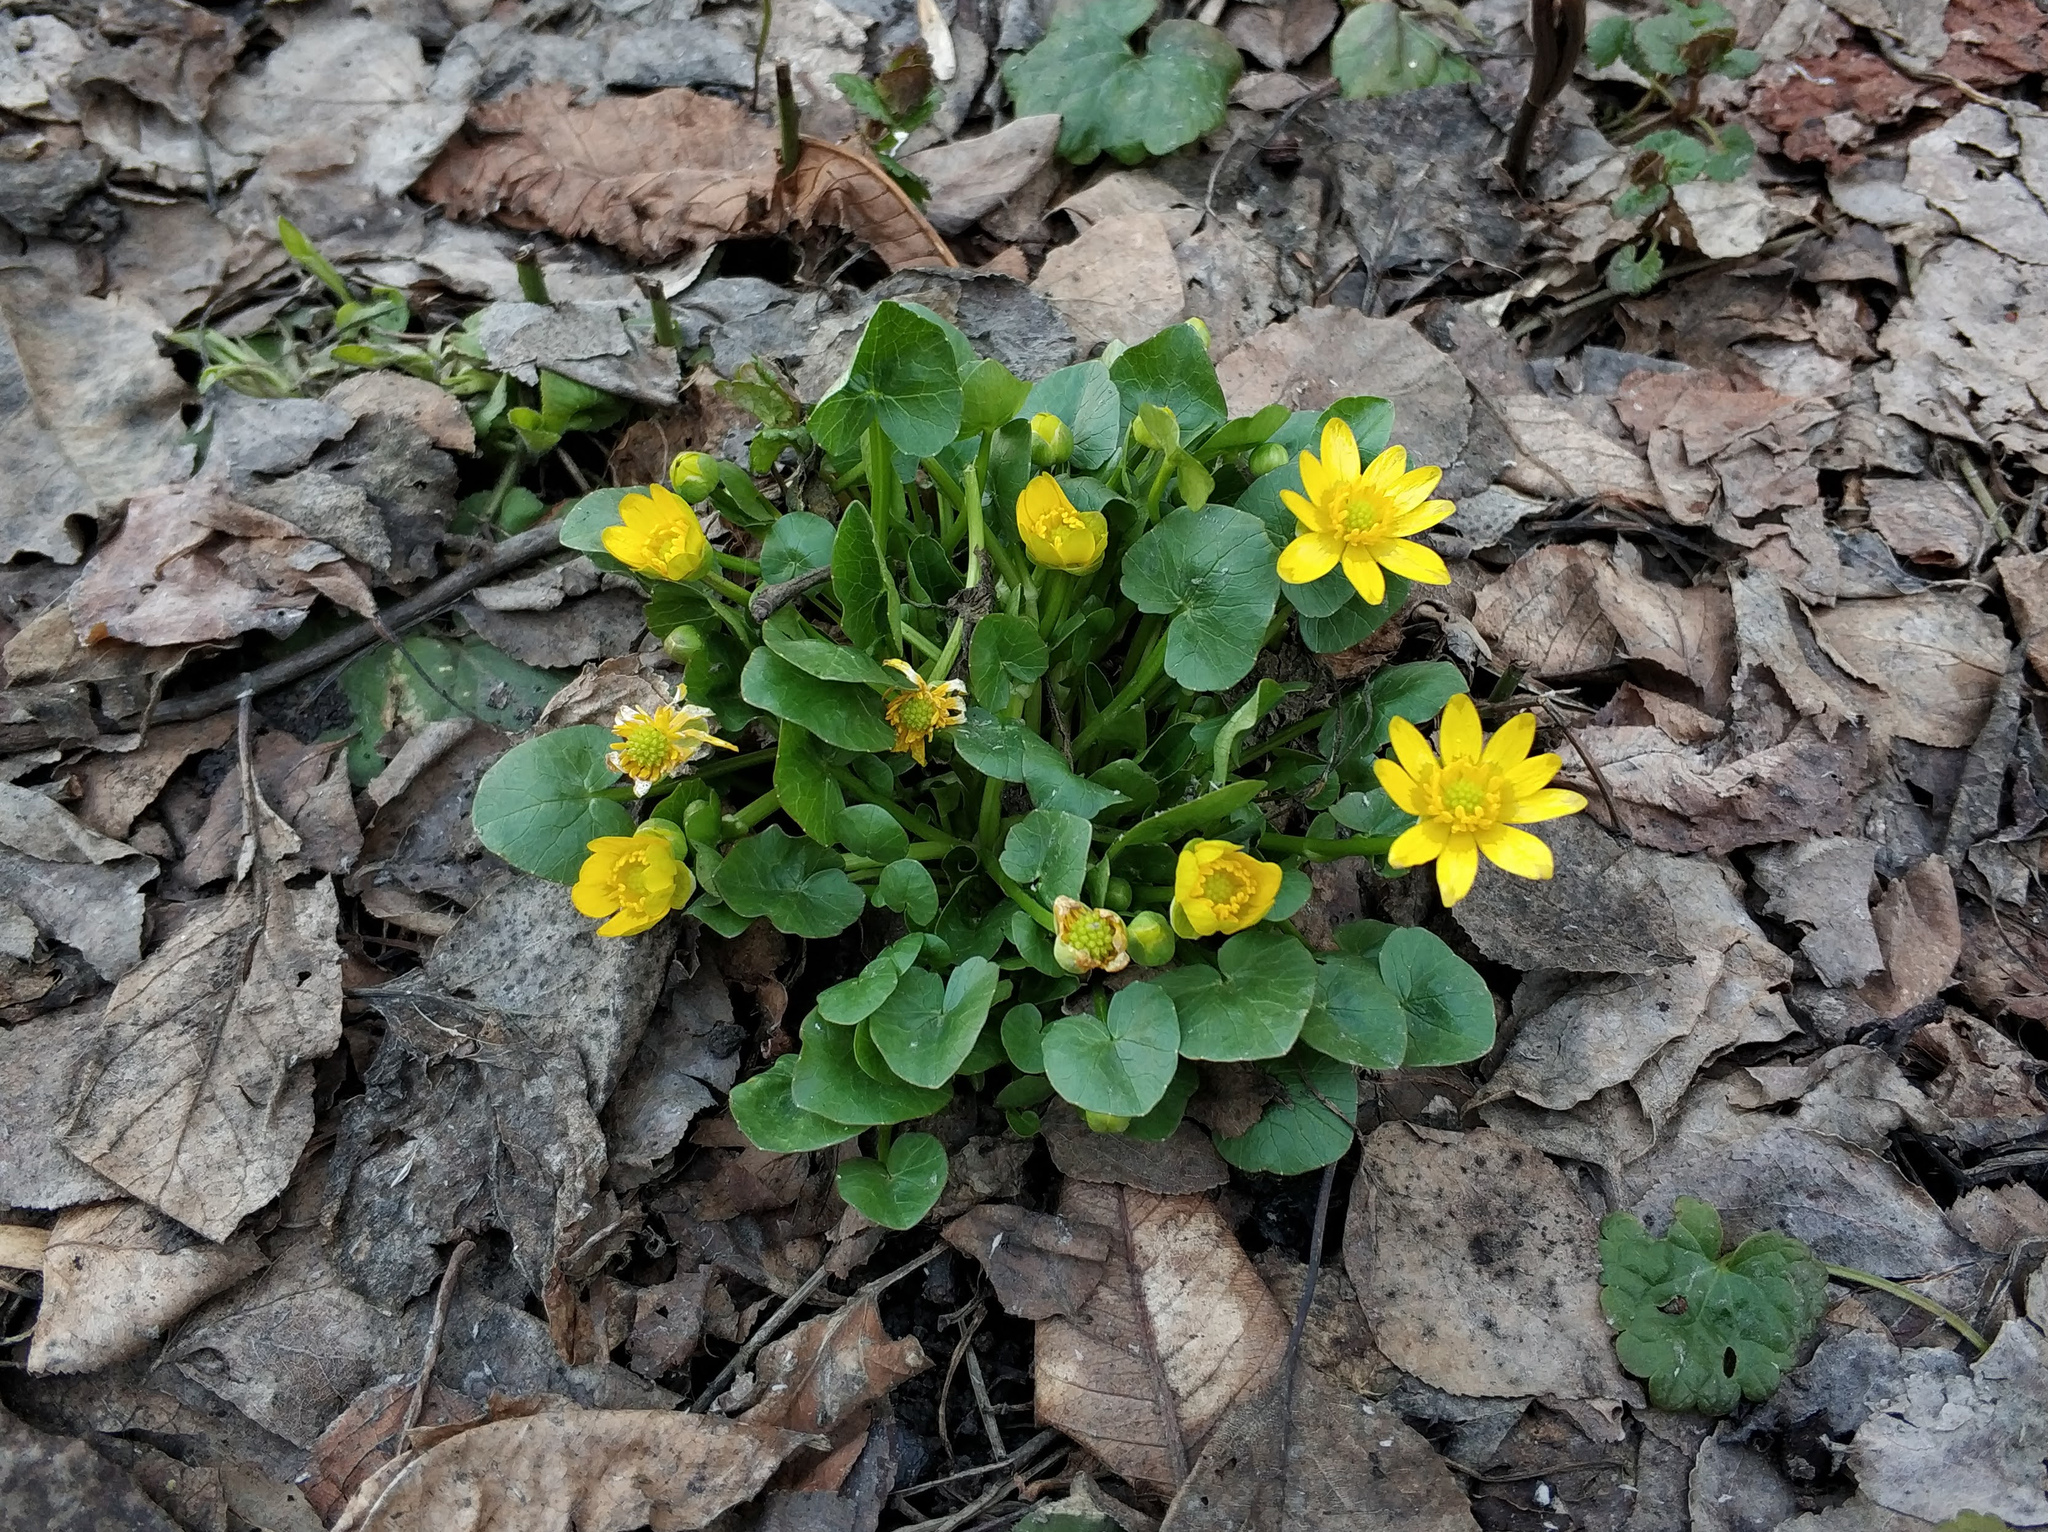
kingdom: Plantae
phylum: Tracheophyta
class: Magnoliopsida
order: Ranunculales
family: Ranunculaceae
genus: Ficaria
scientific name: Ficaria verna
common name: Lesser celandine
